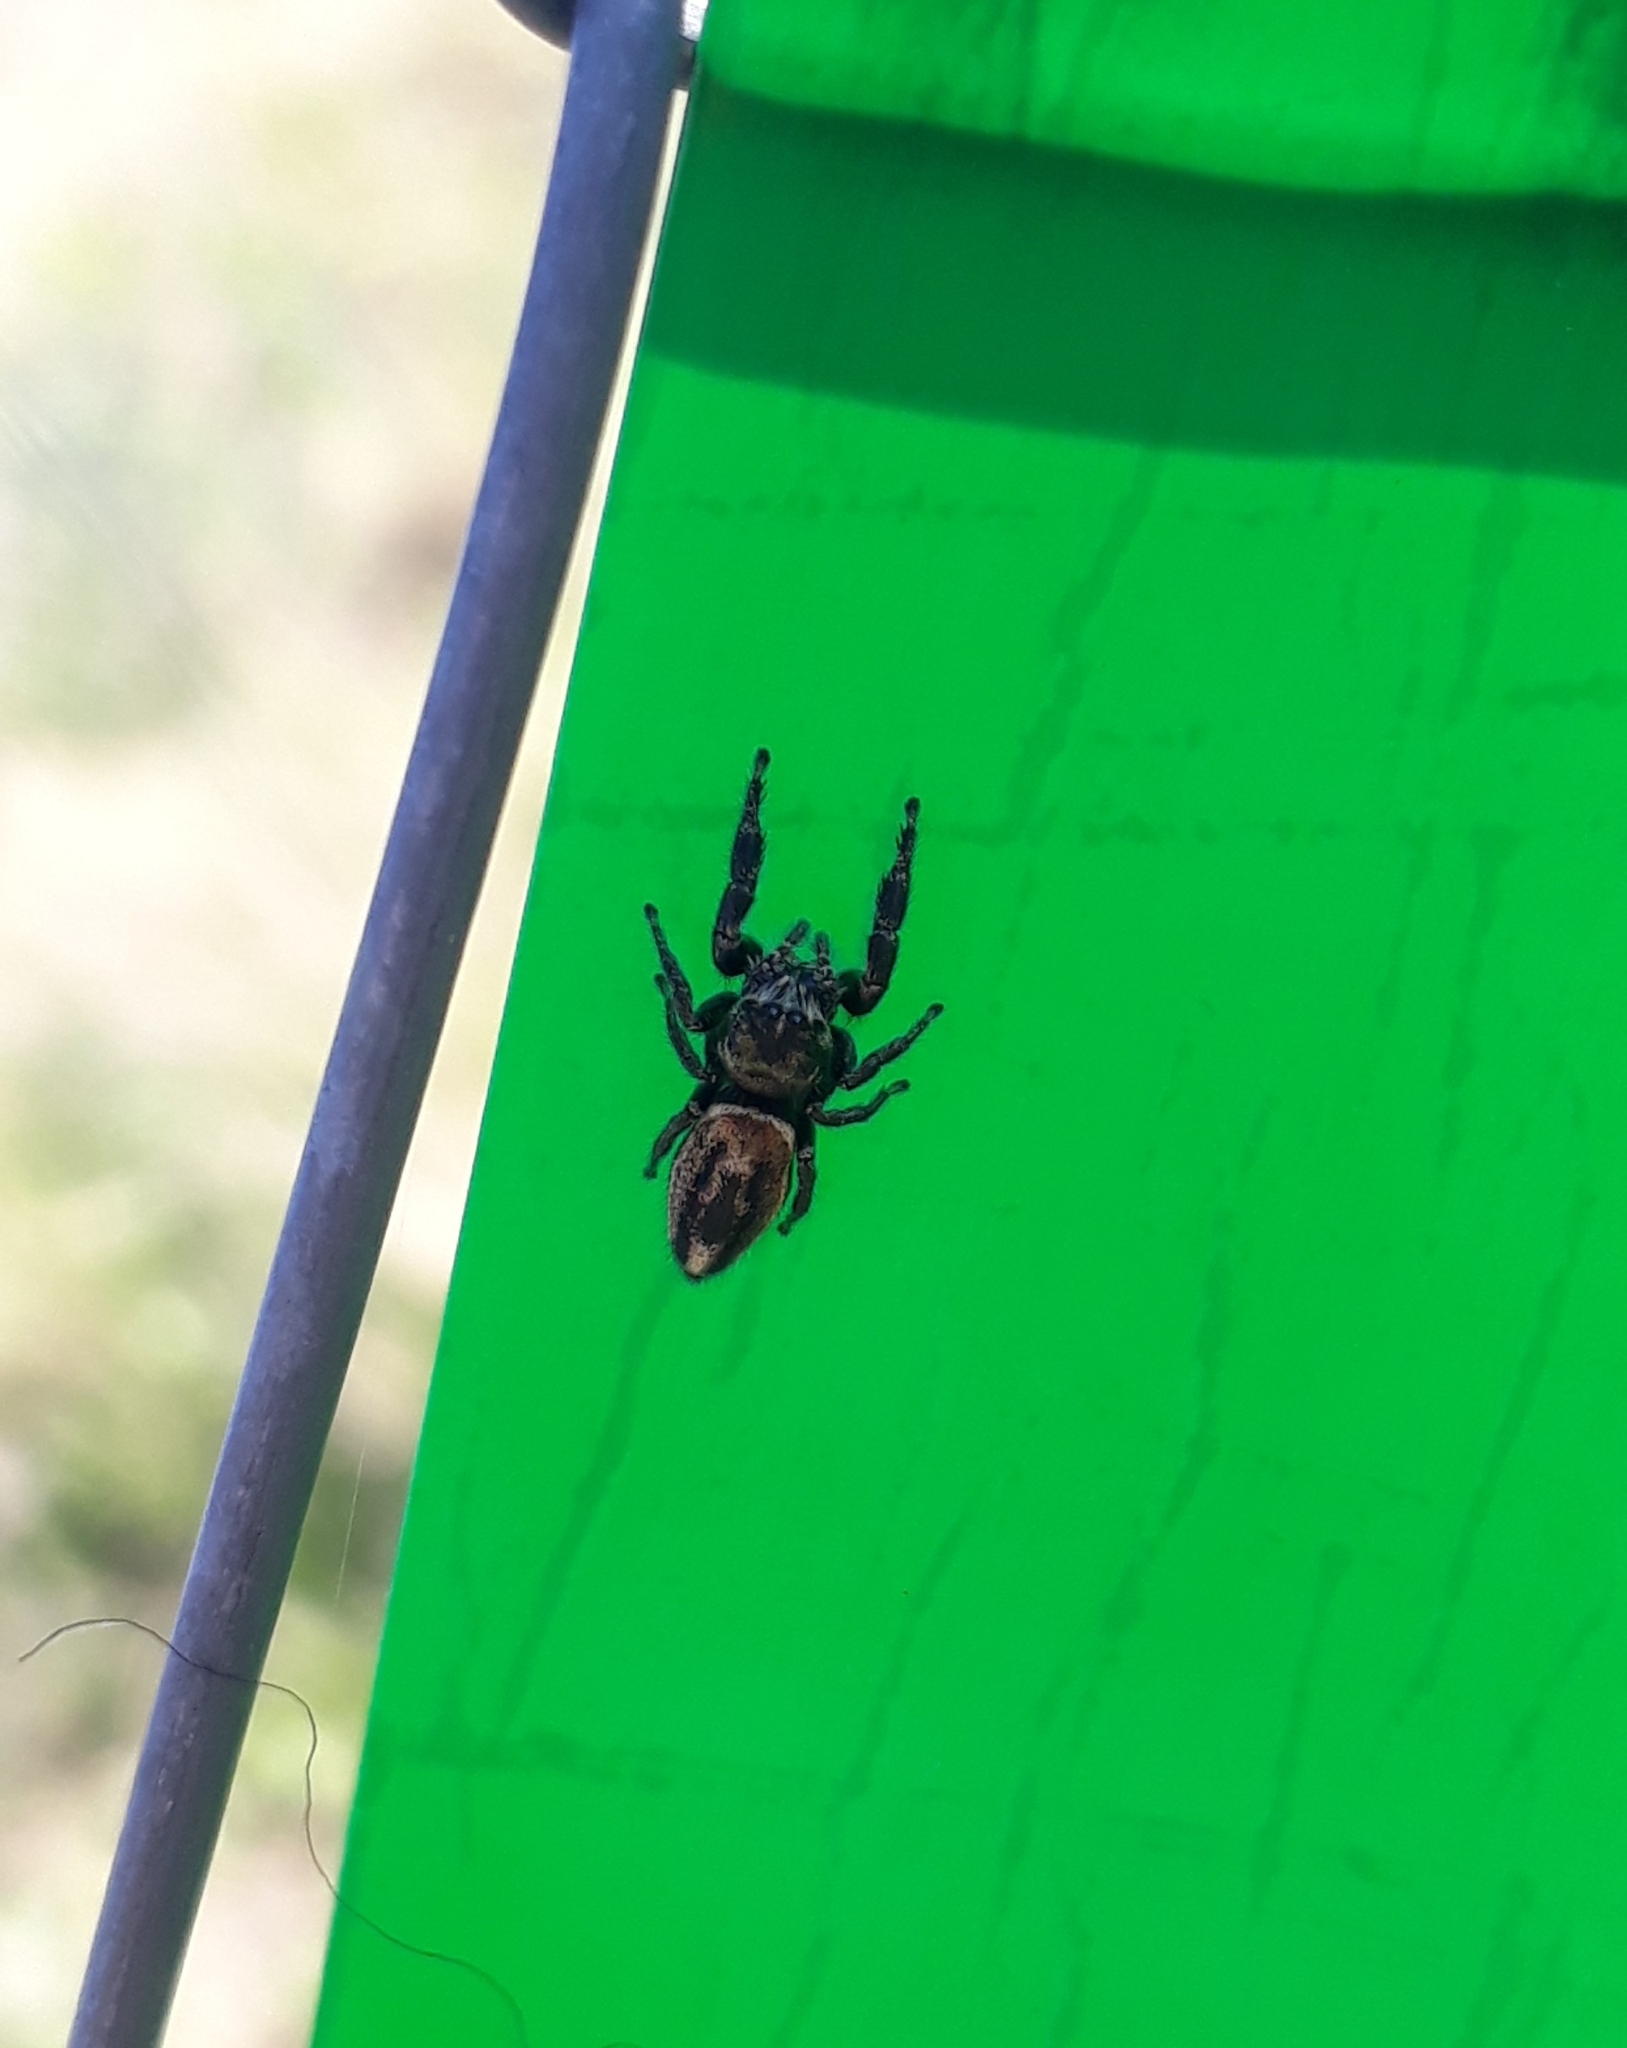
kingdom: Animalia
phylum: Arthropoda
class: Arachnida
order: Araneae
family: Salticidae
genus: Dendryphantes
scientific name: Dendryphantes mordax
